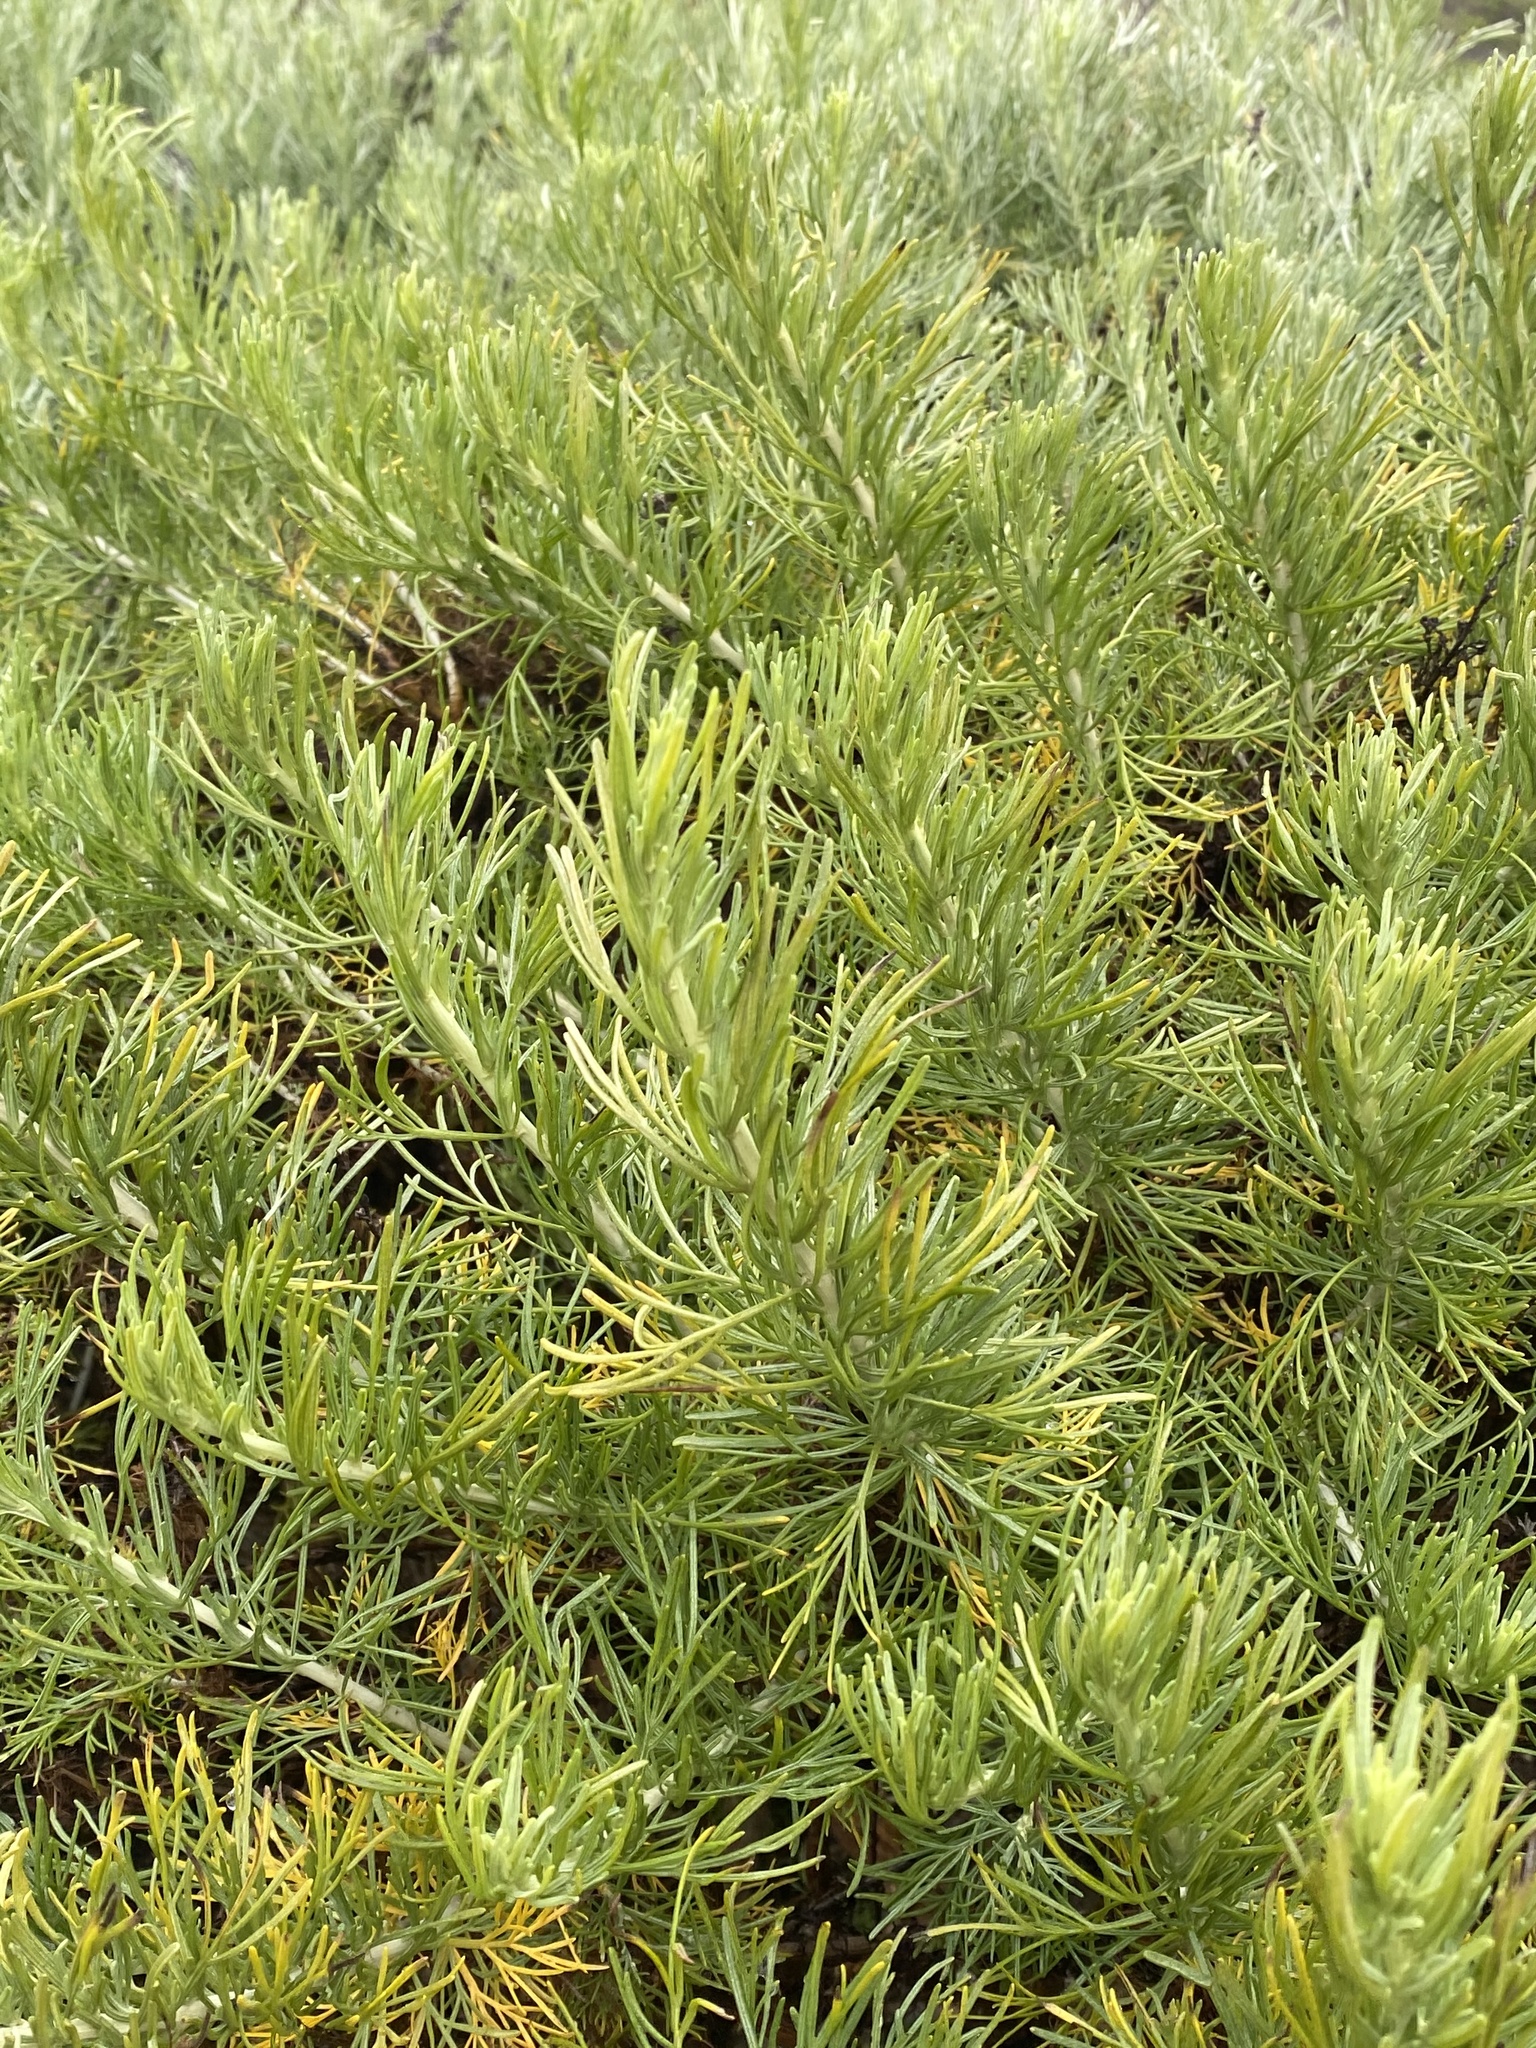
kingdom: Plantae
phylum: Tracheophyta
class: Magnoliopsida
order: Asterales
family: Asteraceae
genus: Artemisia
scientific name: Artemisia californica
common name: California sagebrush
